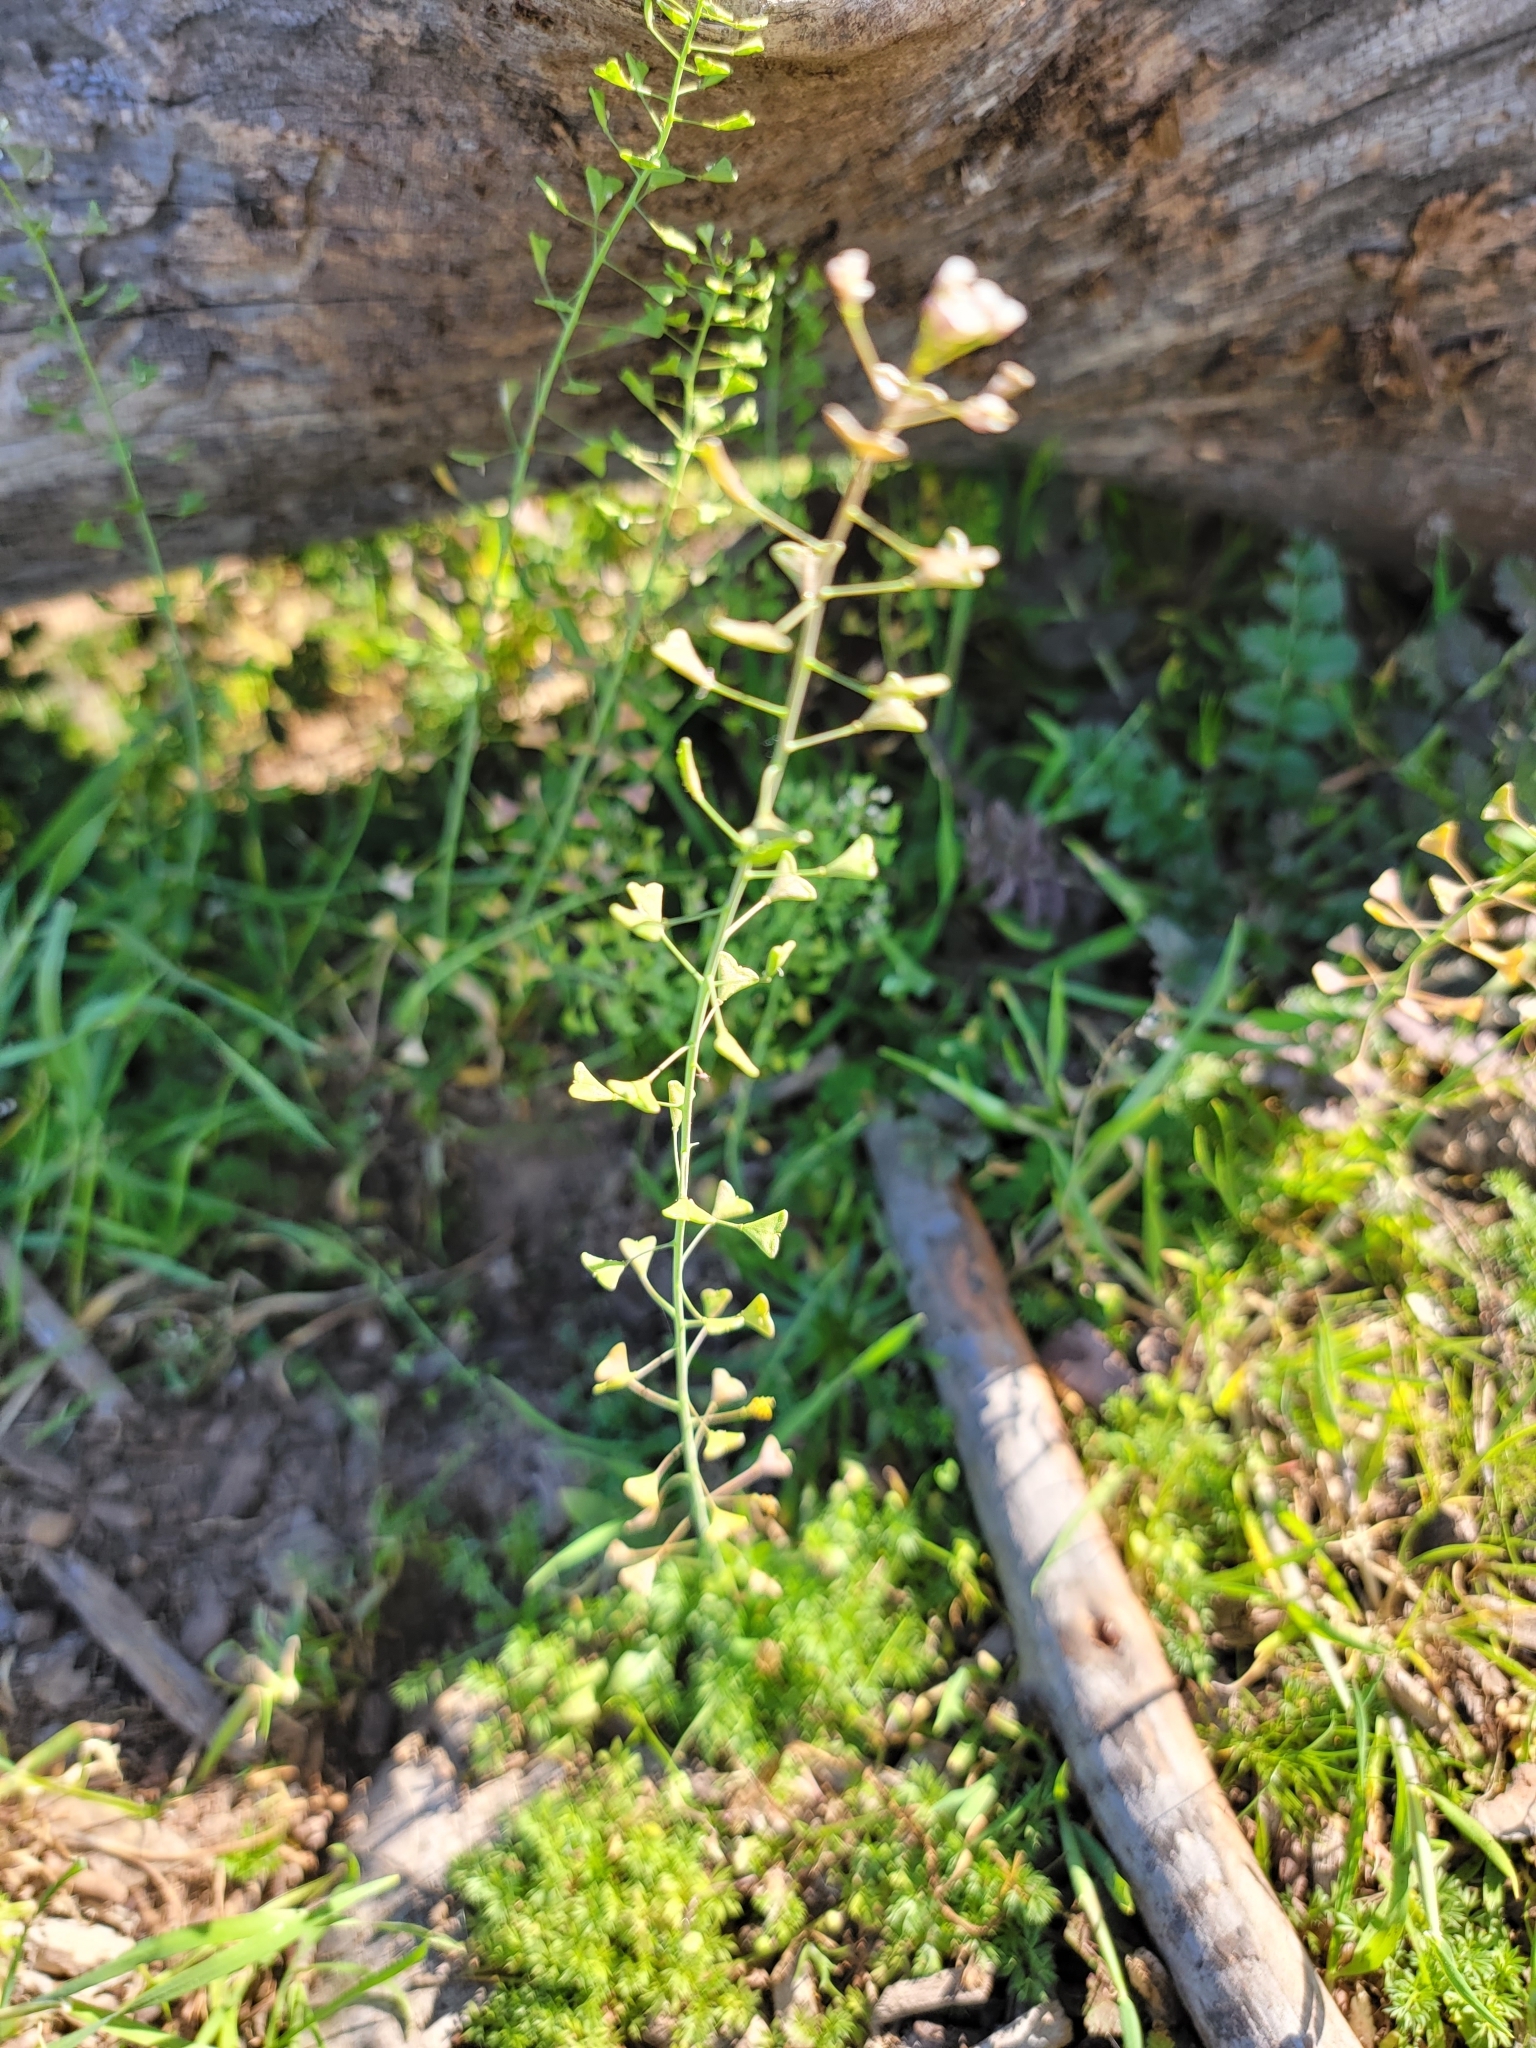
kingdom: Plantae
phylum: Tracheophyta
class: Magnoliopsida
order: Brassicales
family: Brassicaceae
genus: Capsella
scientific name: Capsella bursa-pastoris
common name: Shepherd's purse
